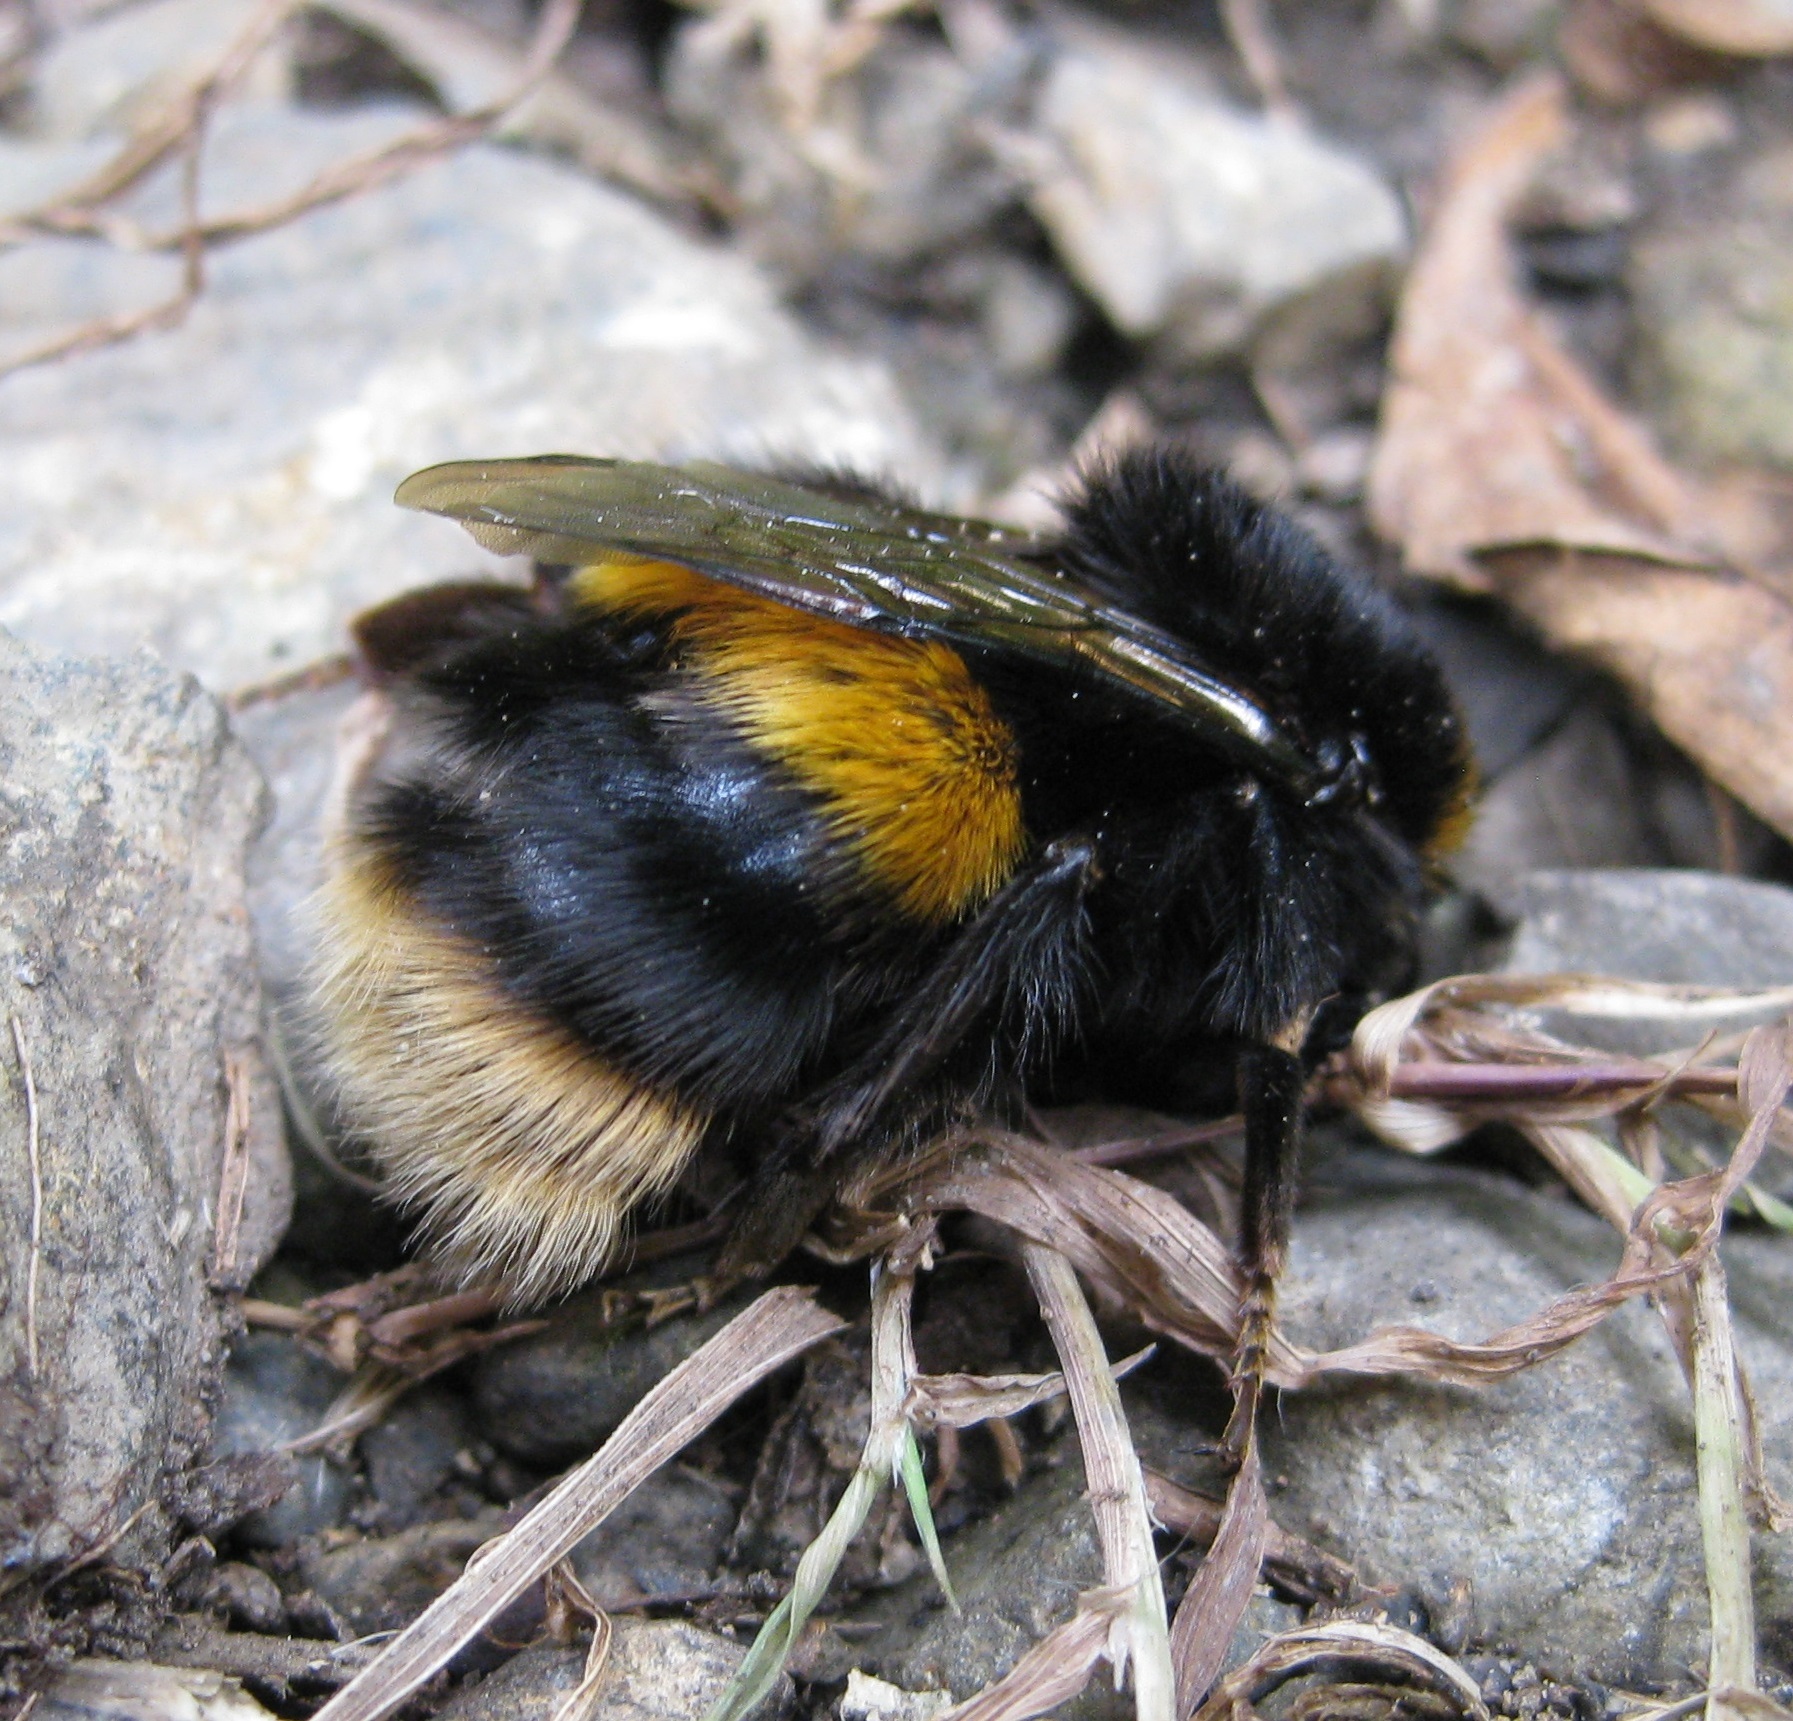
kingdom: Animalia
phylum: Arthropoda
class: Insecta
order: Hymenoptera
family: Apidae
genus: Bombus
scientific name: Bombus terrestris
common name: Buff-tailed bumblebee
